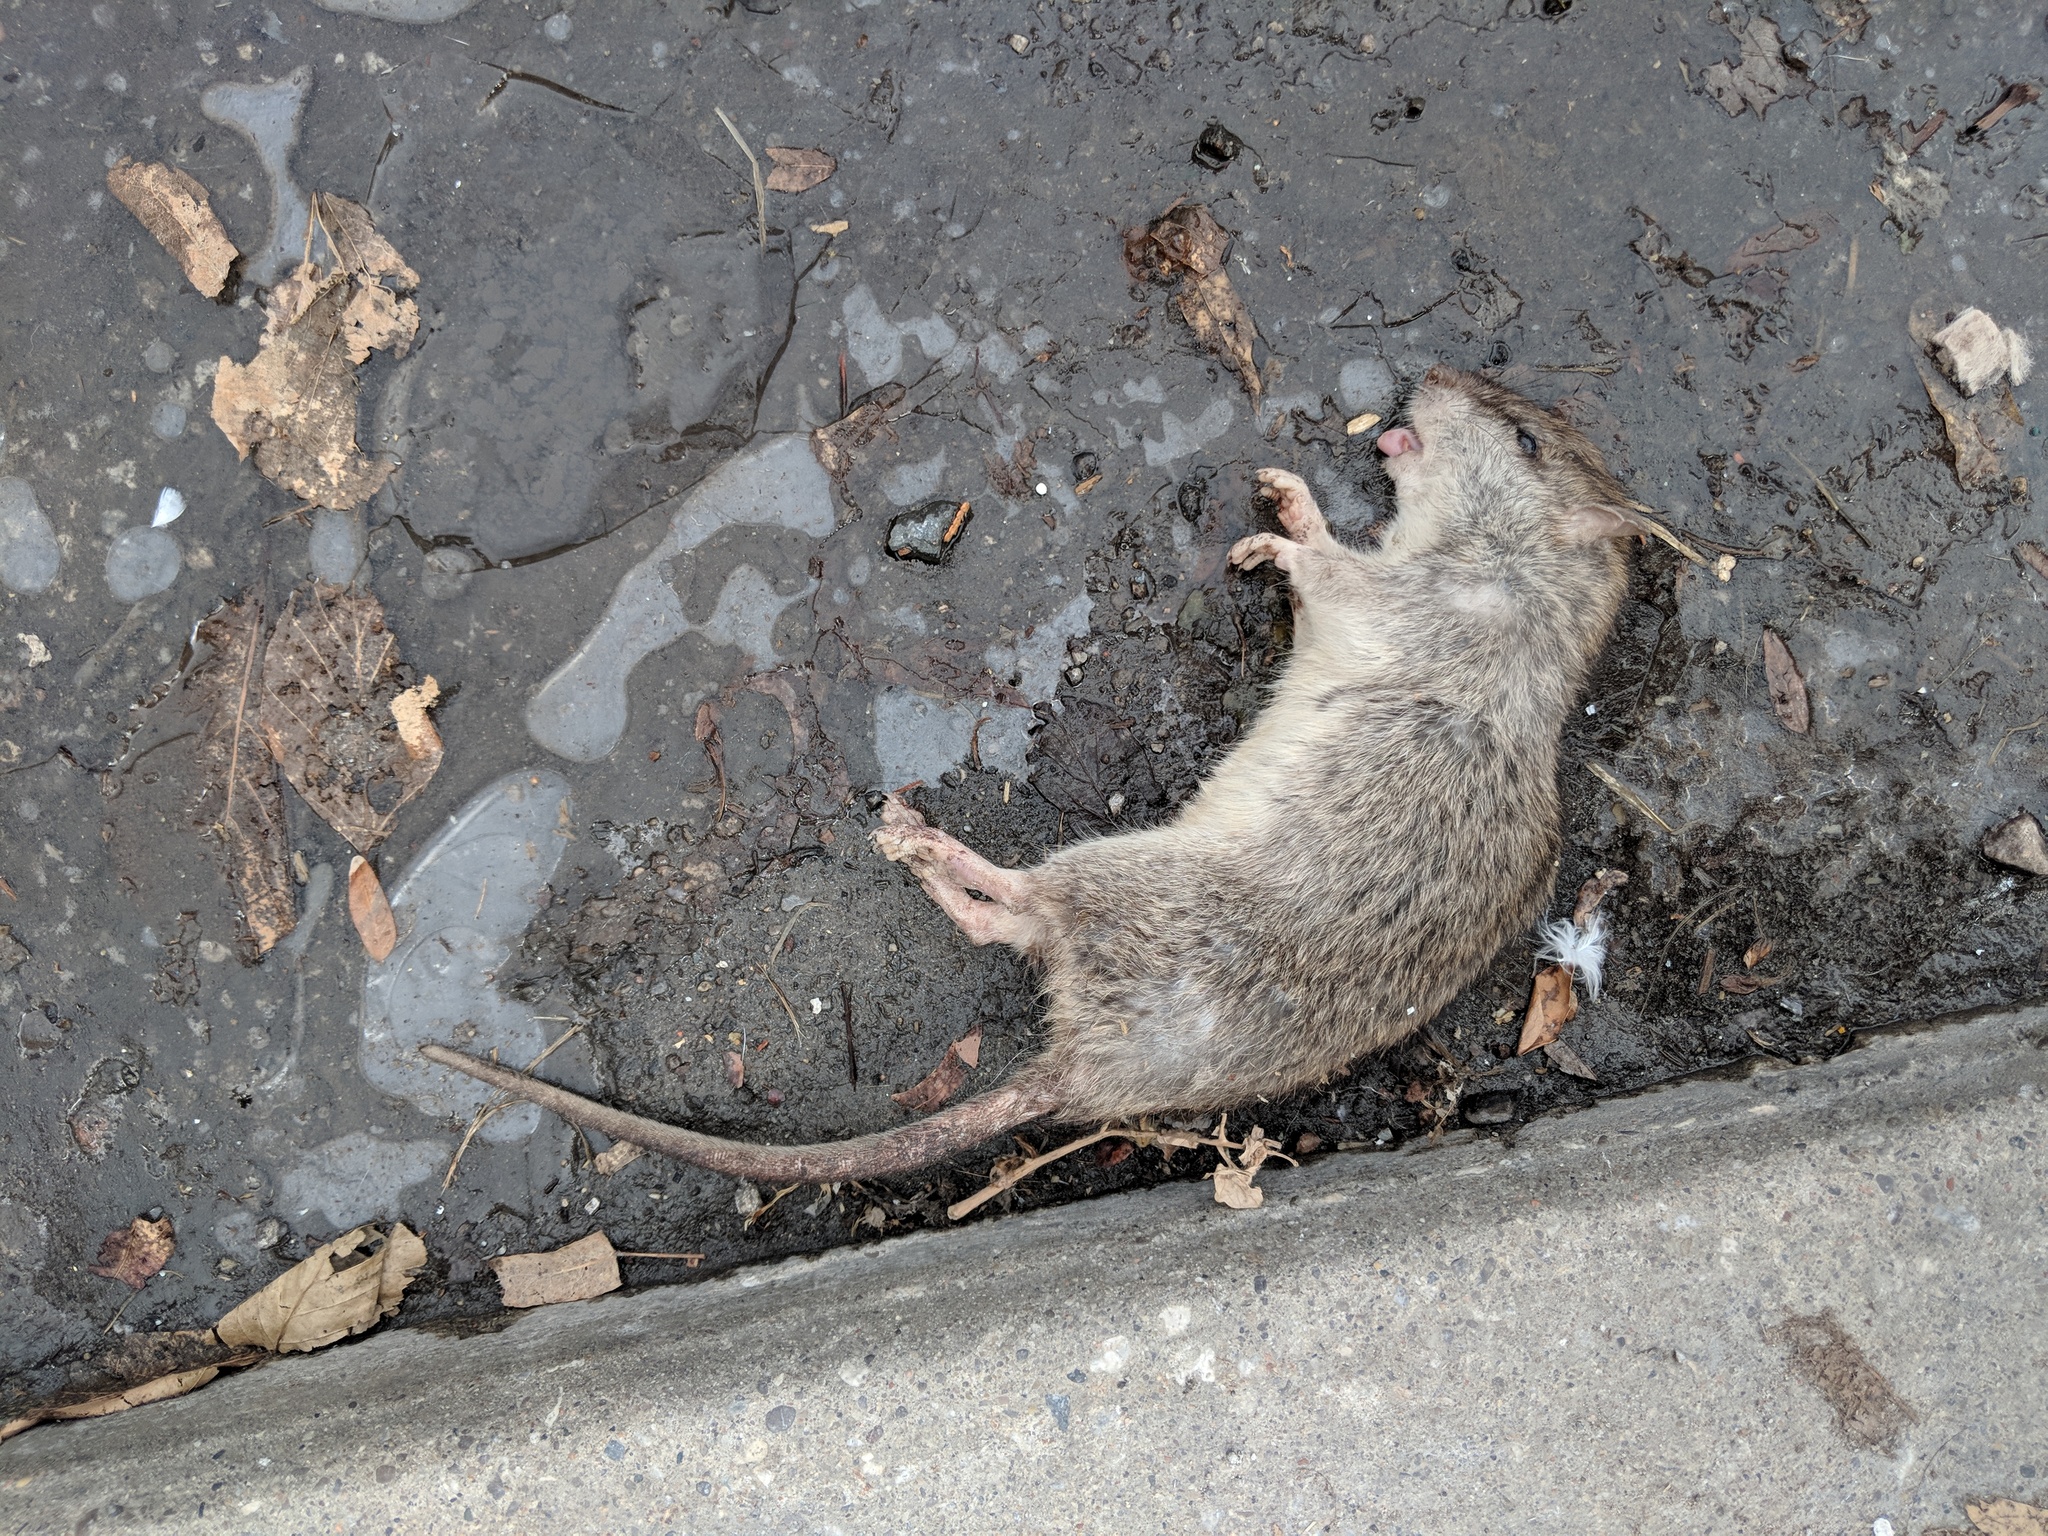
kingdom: Animalia
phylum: Chordata
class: Mammalia
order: Rodentia
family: Muridae
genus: Rattus
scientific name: Rattus norvegicus
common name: Brown rat
